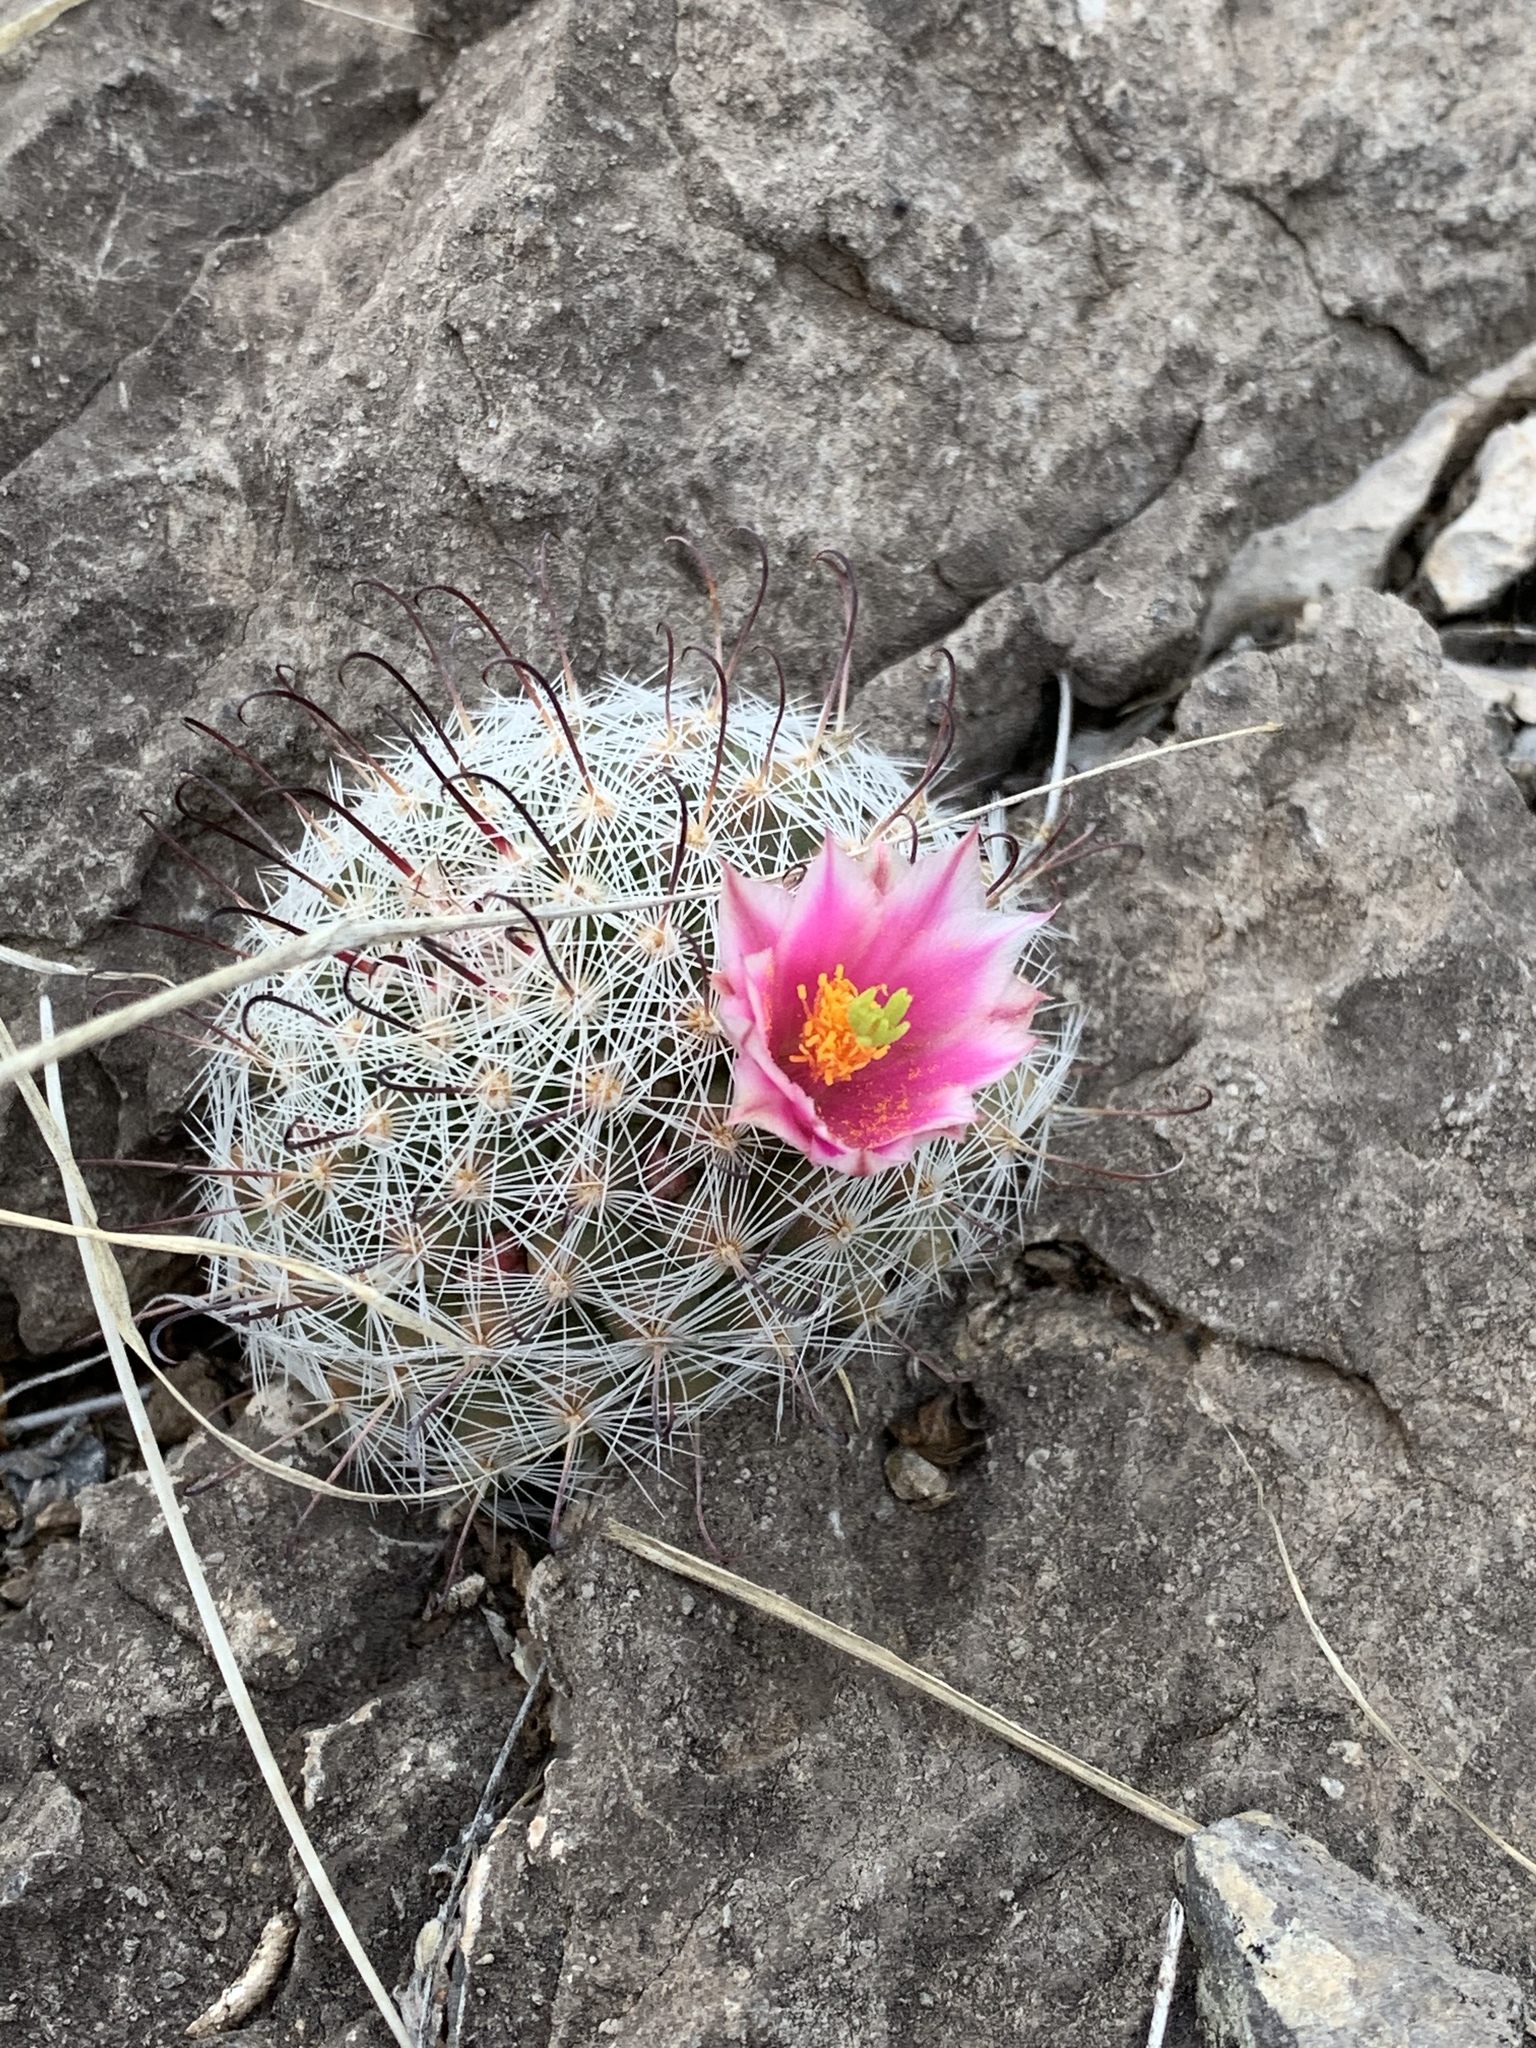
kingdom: Plantae
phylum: Tracheophyta
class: Magnoliopsida
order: Caryophyllales
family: Cactaceae
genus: Cochemiea
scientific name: Cochemiea grahamii
